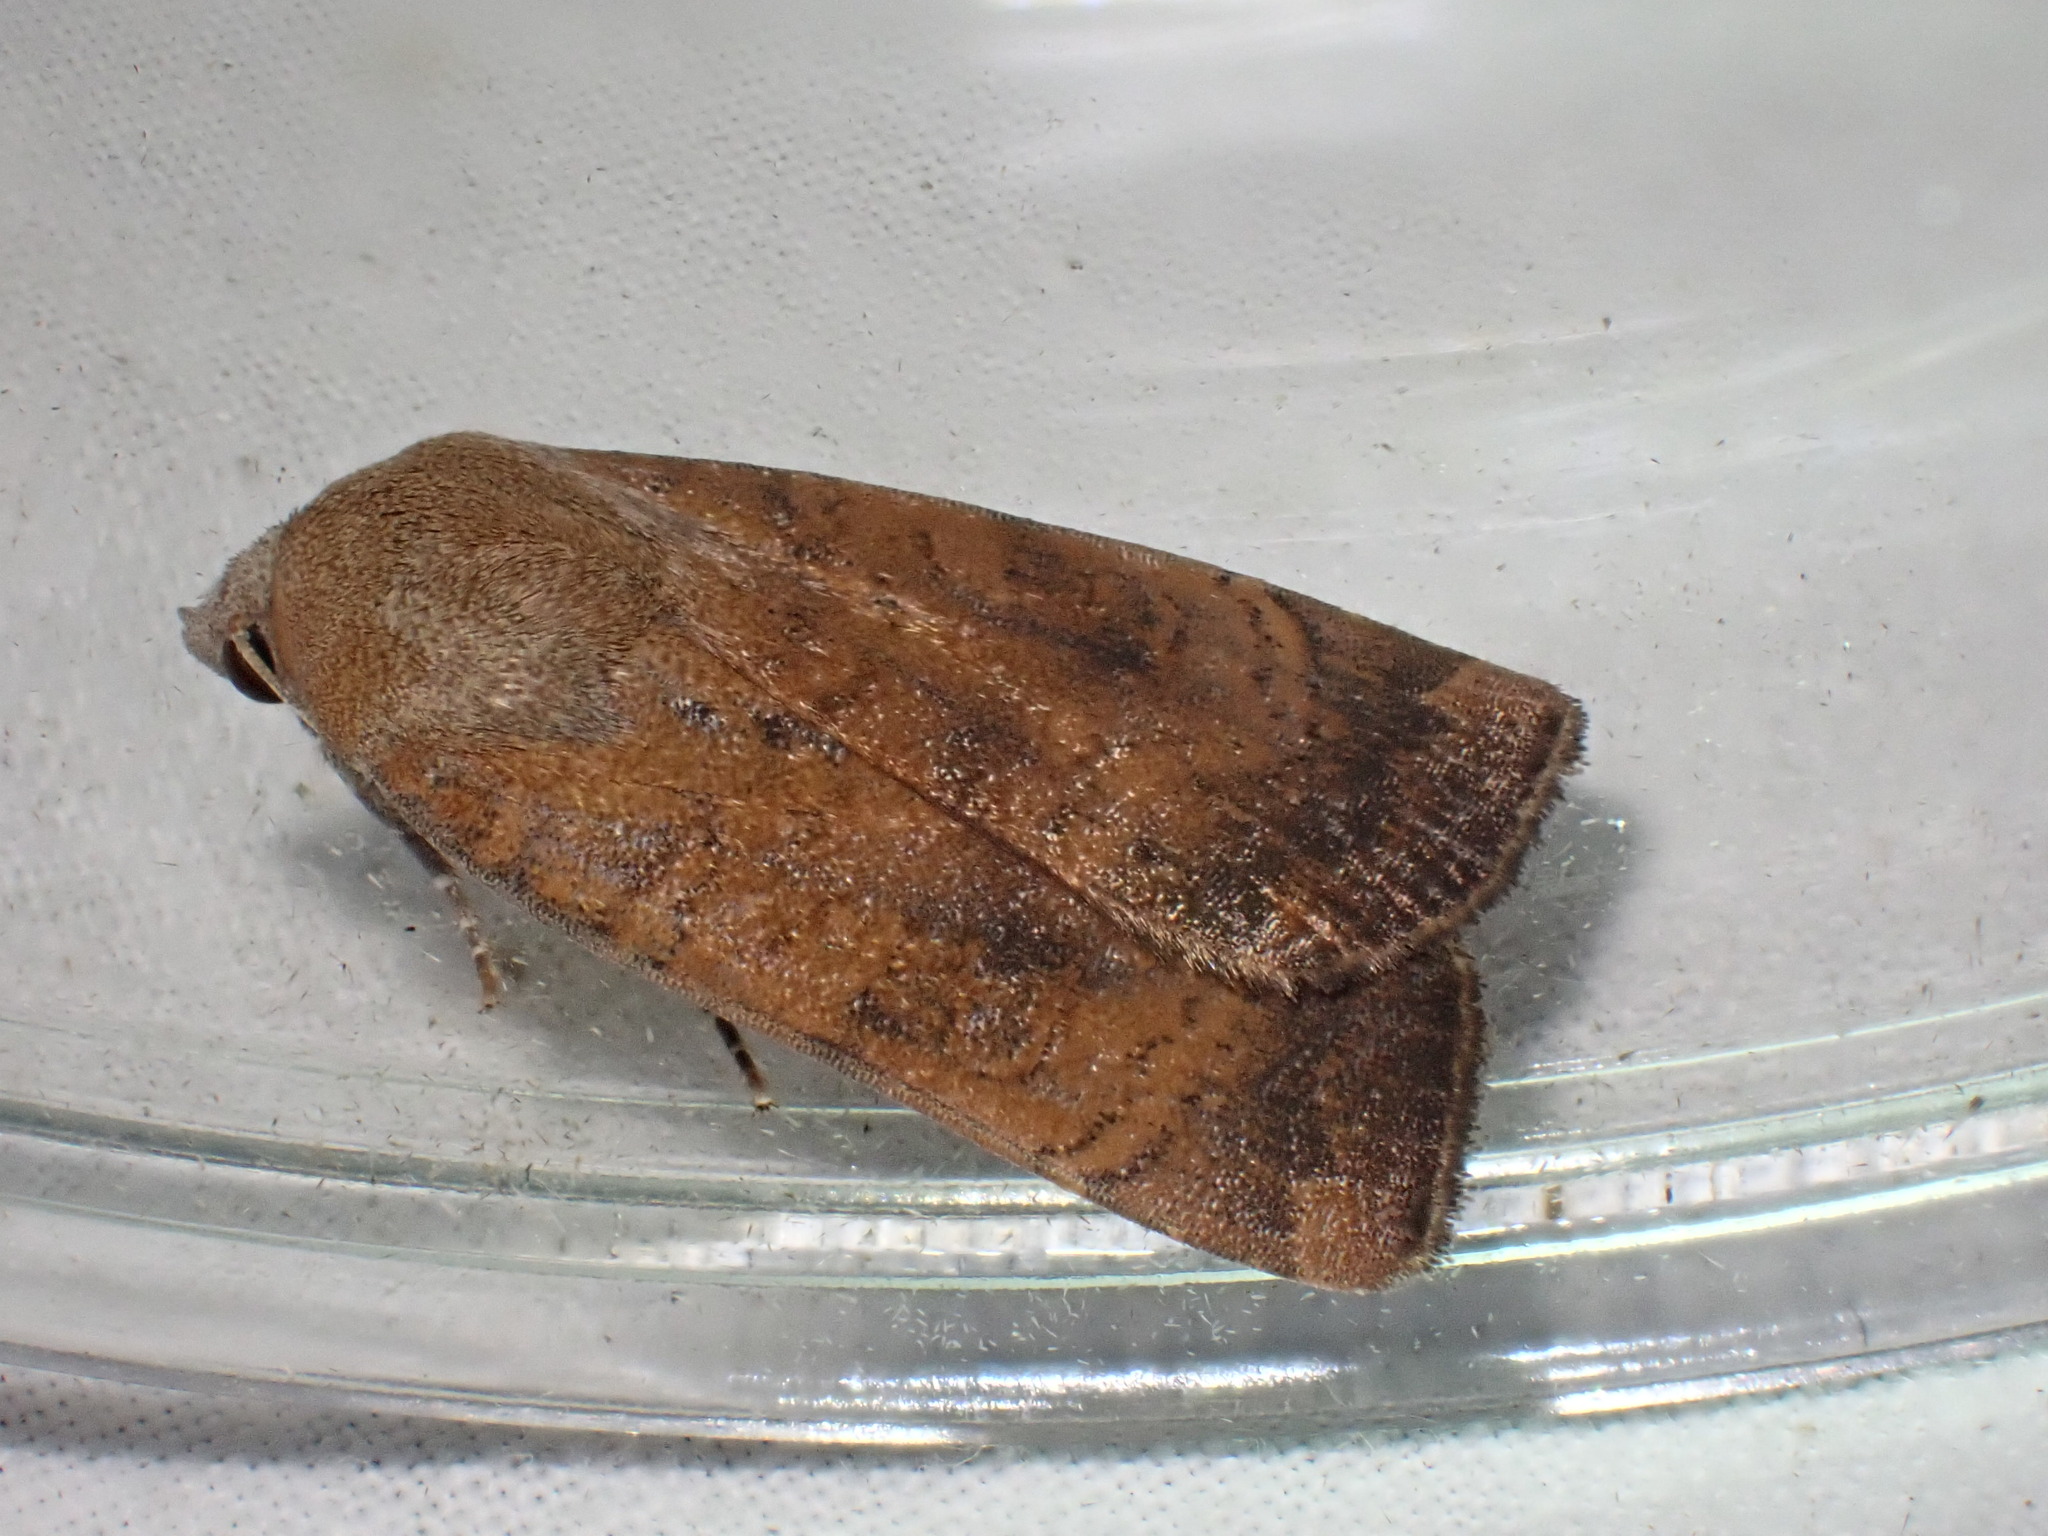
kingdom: Animalia
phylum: Arthropoda
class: Insecta
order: Lepidoptera
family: Noctuidae
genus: Noctua
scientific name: Noctua interjecta
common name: Least yellow underwing
